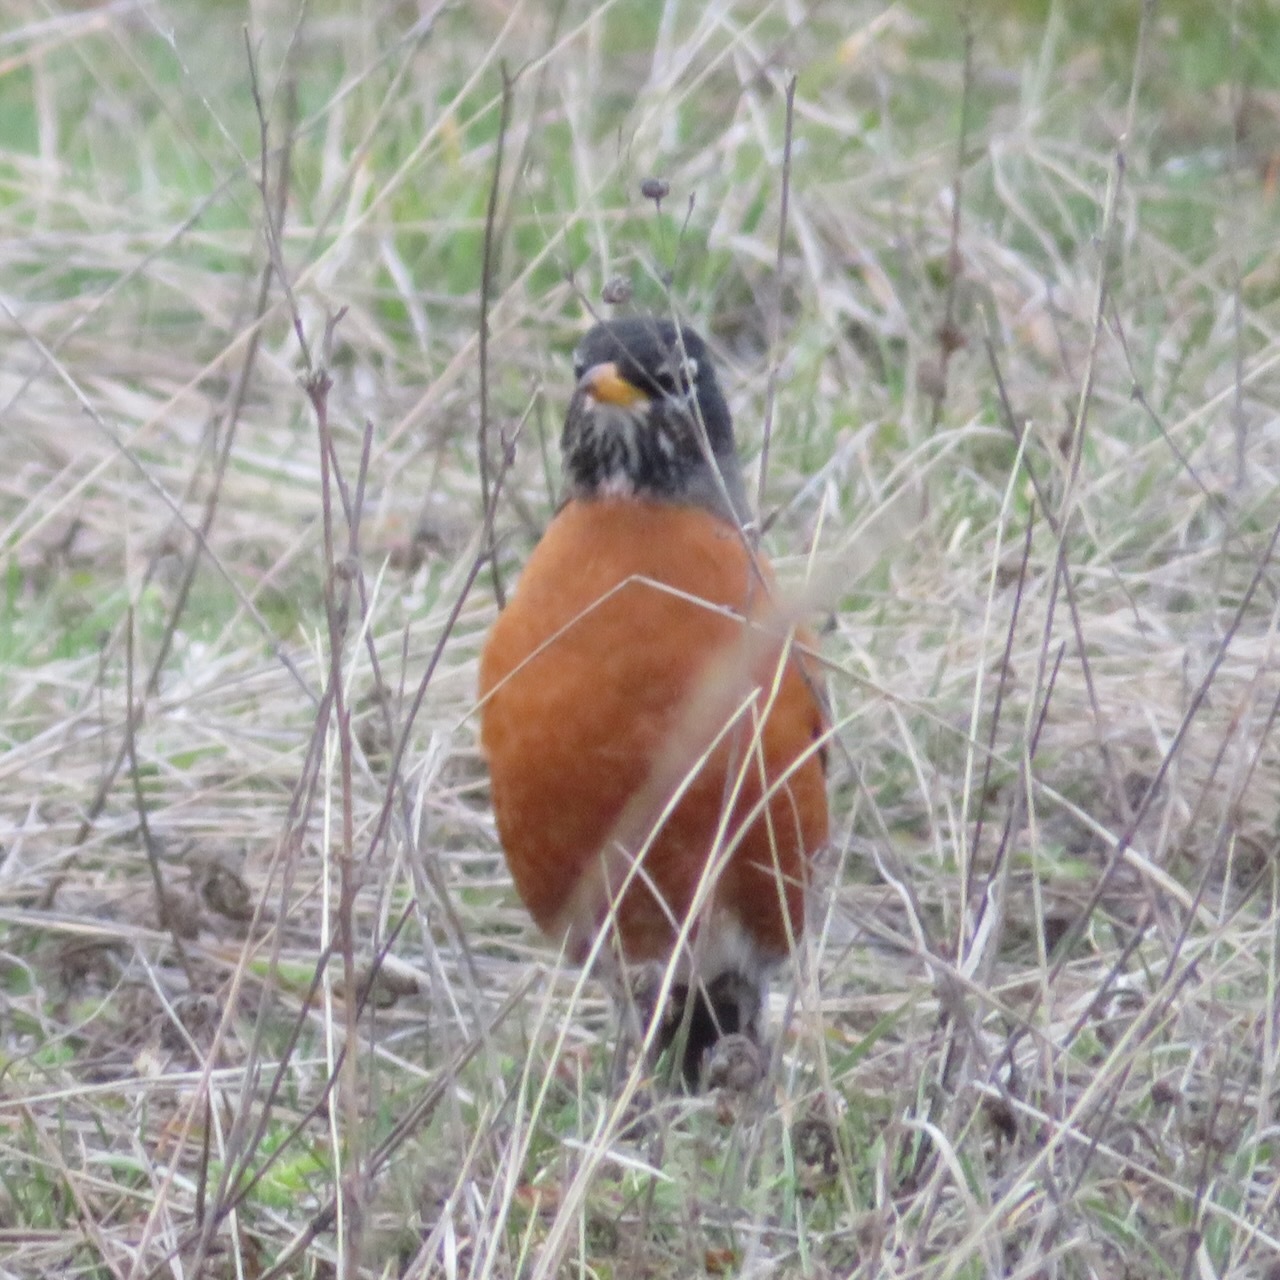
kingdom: Animalia
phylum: Chordata
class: Aves
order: Passeriformes
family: Turdidae
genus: Turdus
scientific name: Turdus migratorius
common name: American robin
